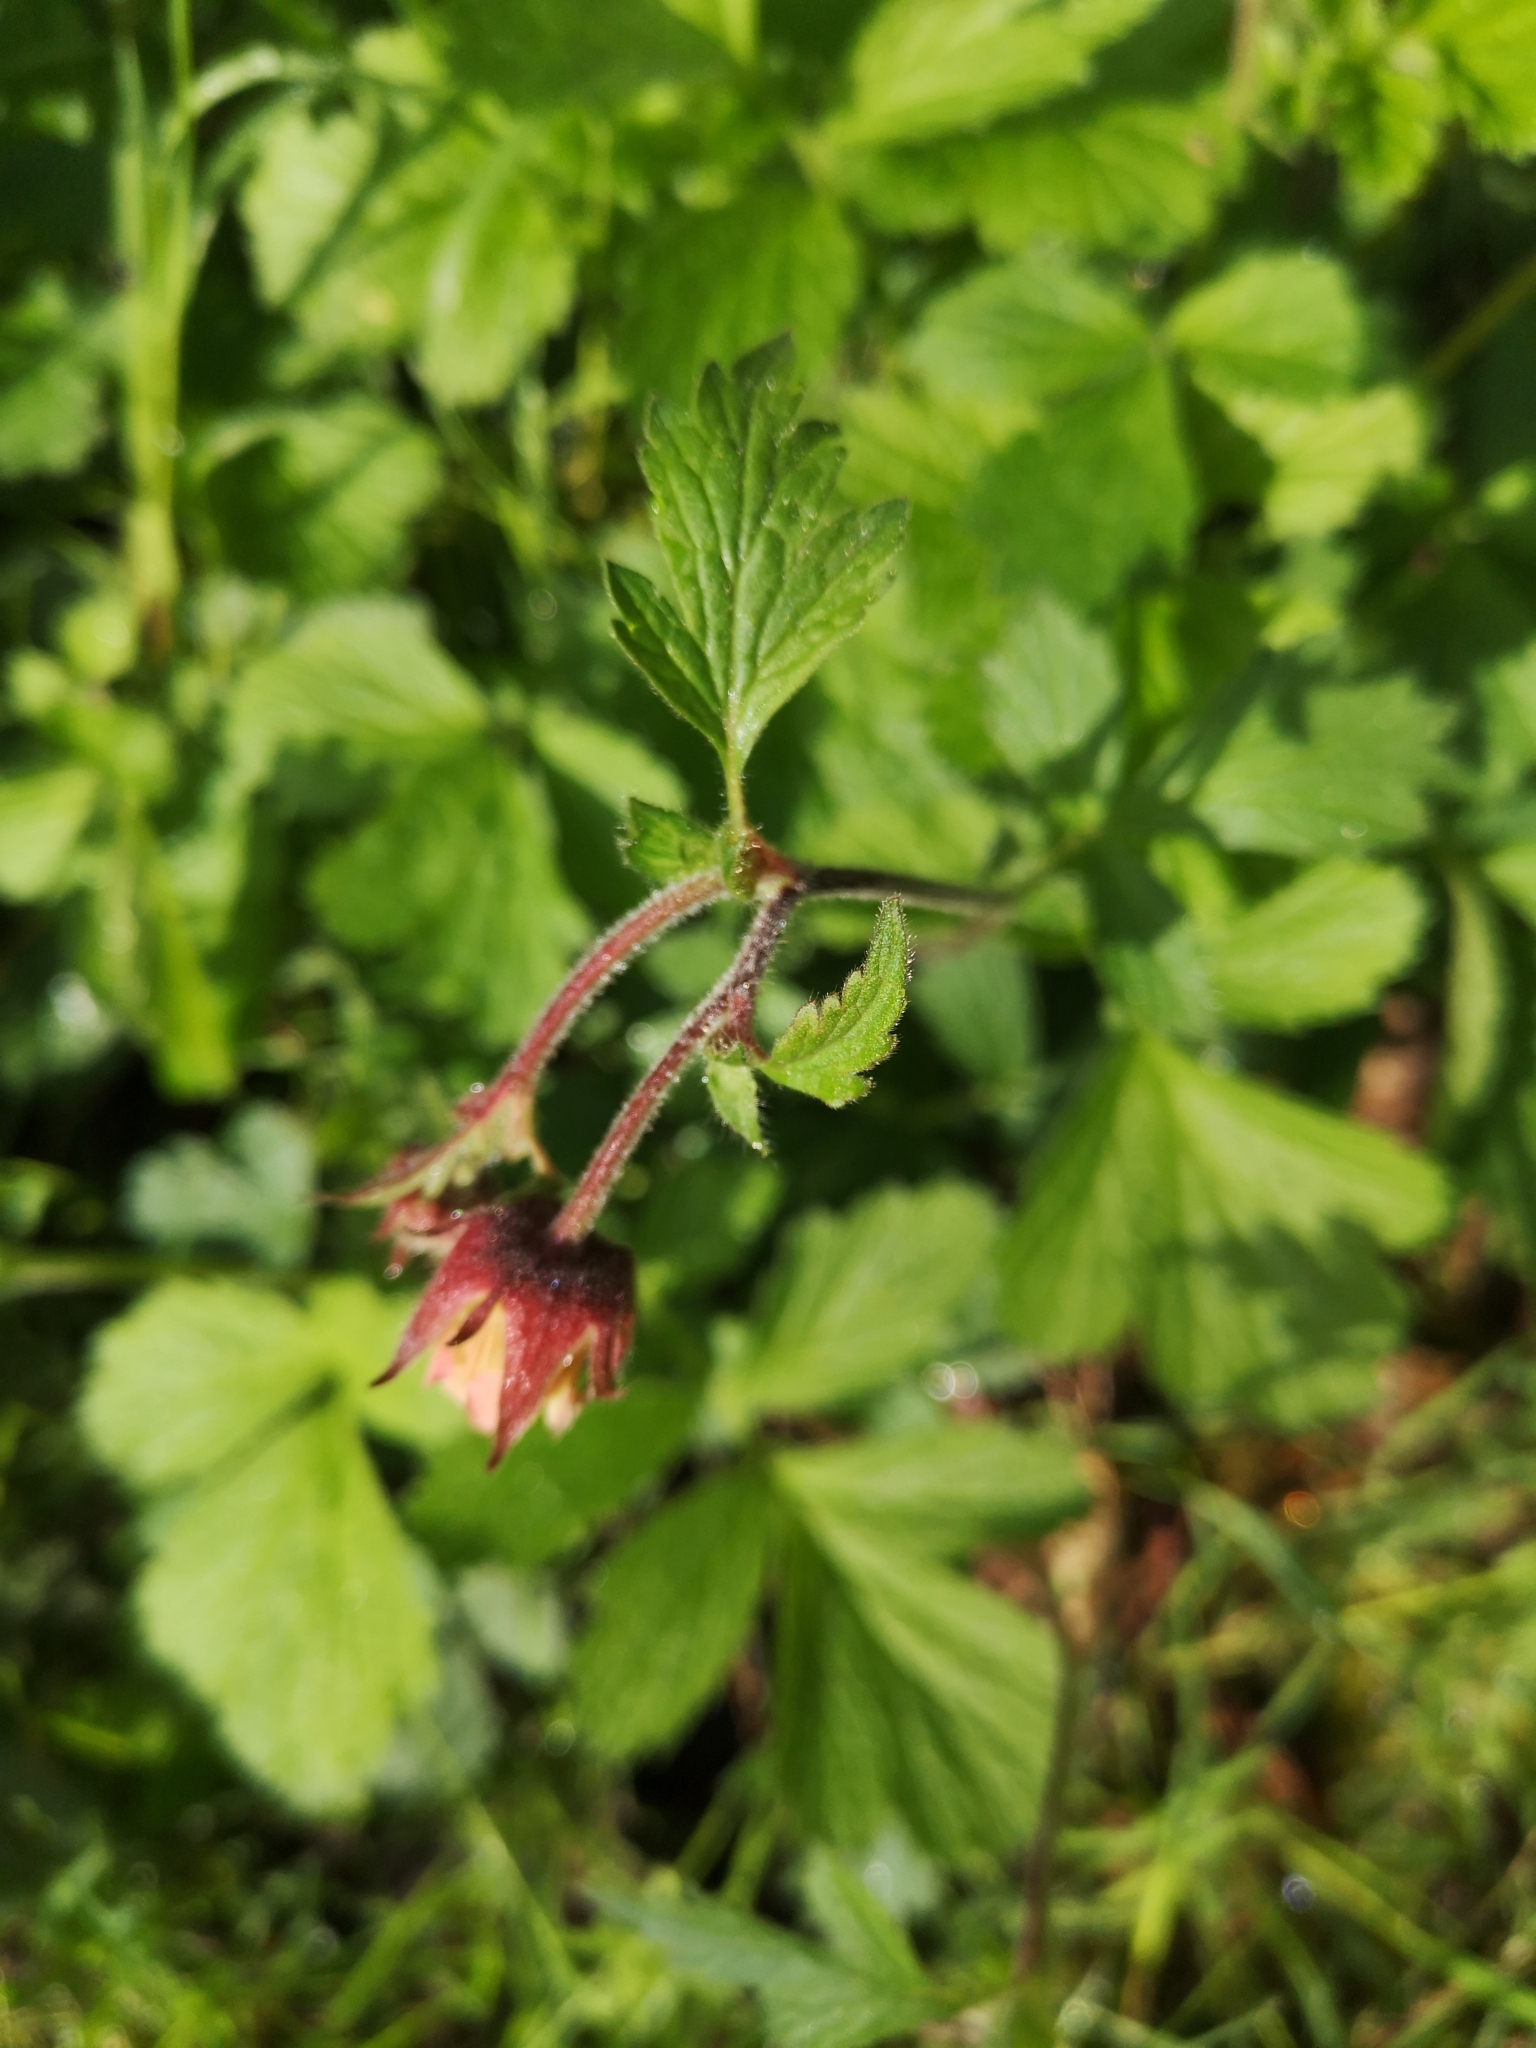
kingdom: Plantae
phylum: Tracheophyta
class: Magnoliopsida
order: Rosales
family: Rosaceae
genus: Geum
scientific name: Geum rivale
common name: Water avens
